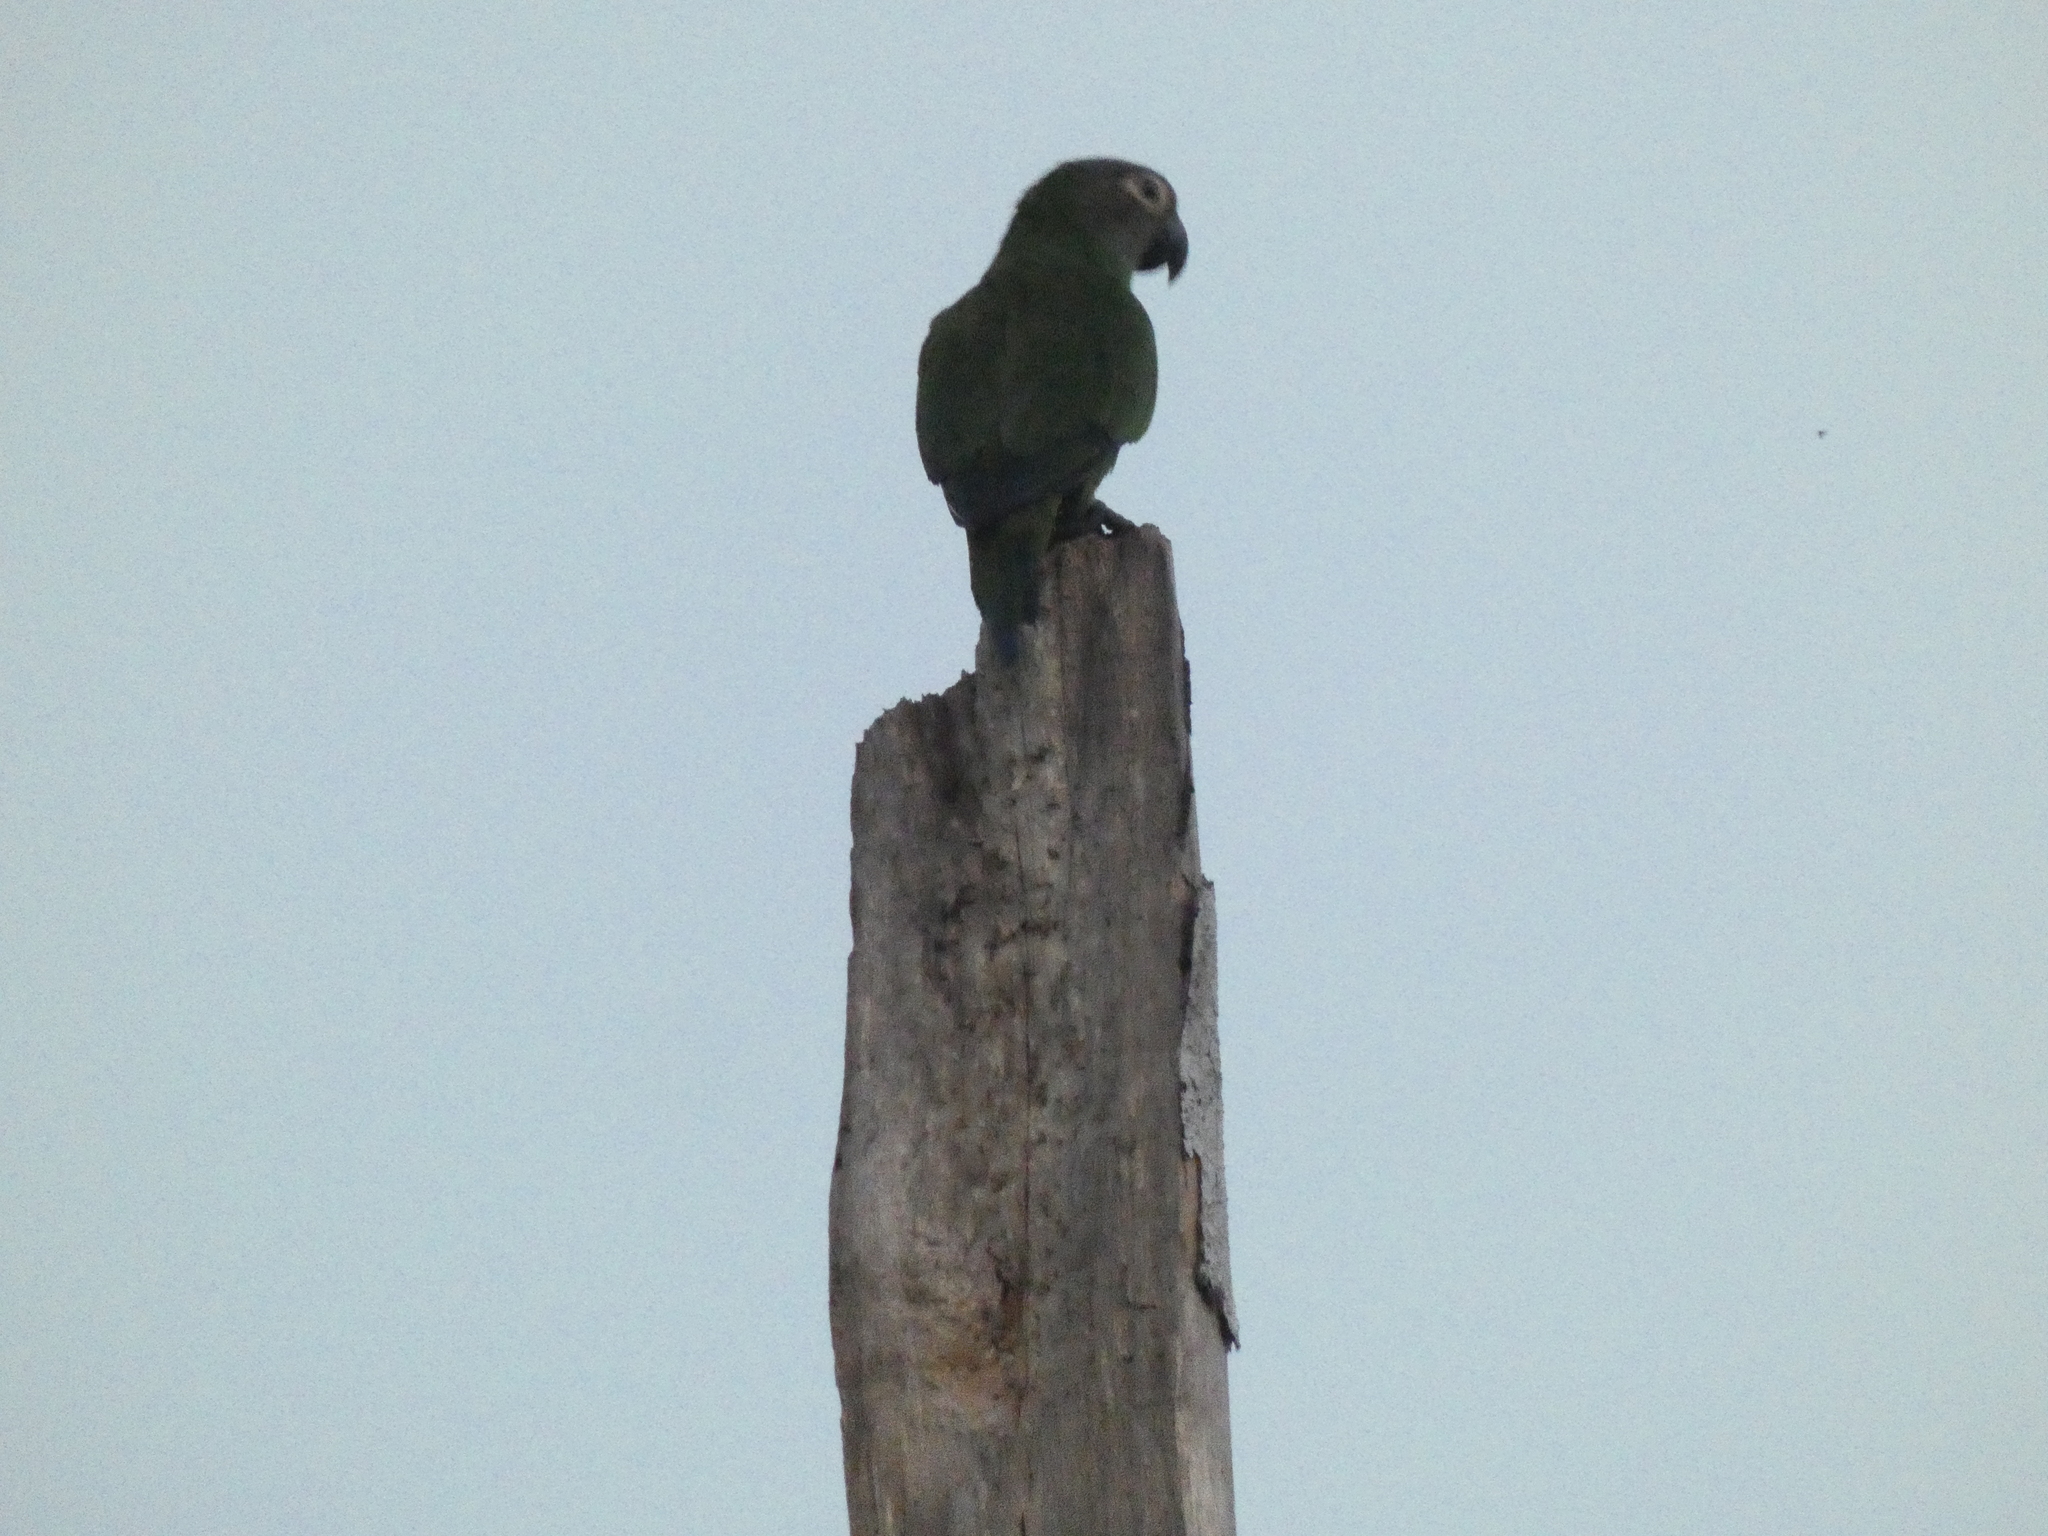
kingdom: Animalia
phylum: Chordata
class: Aves
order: Psittaciformes
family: Psittacidae
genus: Aratinga
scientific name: Aratinga weddellii
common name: Dusky-headed parakeet
